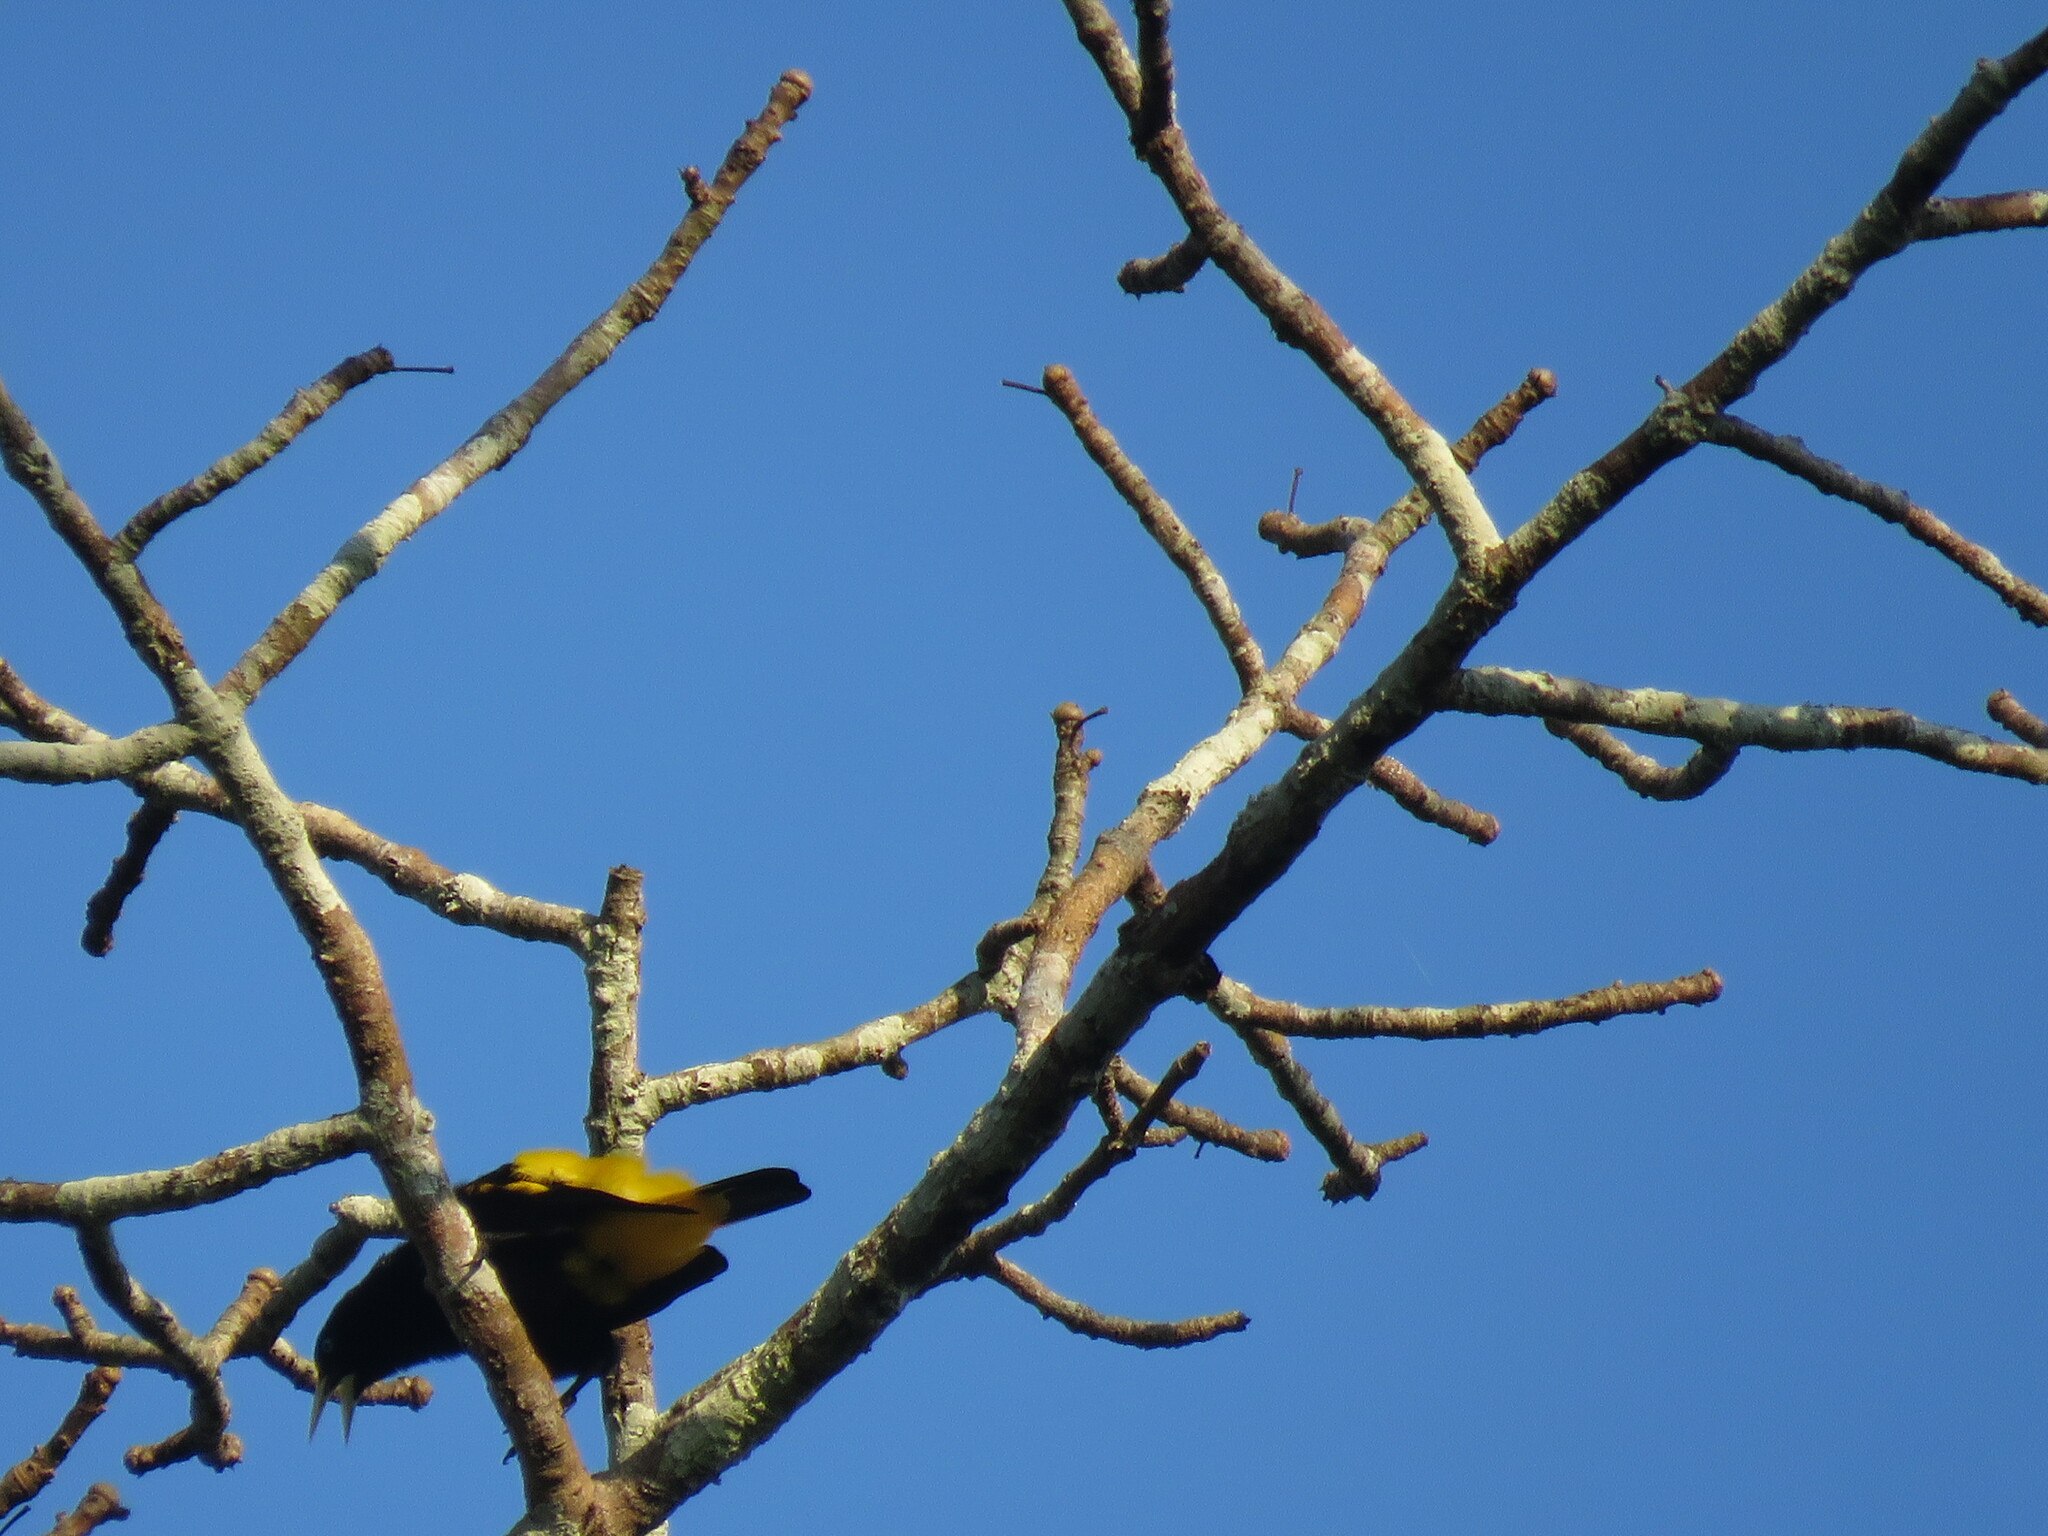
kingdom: Animalia
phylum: Chordata
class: Aves
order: Passeriformes
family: Icteridae
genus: Cacicus
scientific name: Cacicus cela
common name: Yellow-rumped cacique
